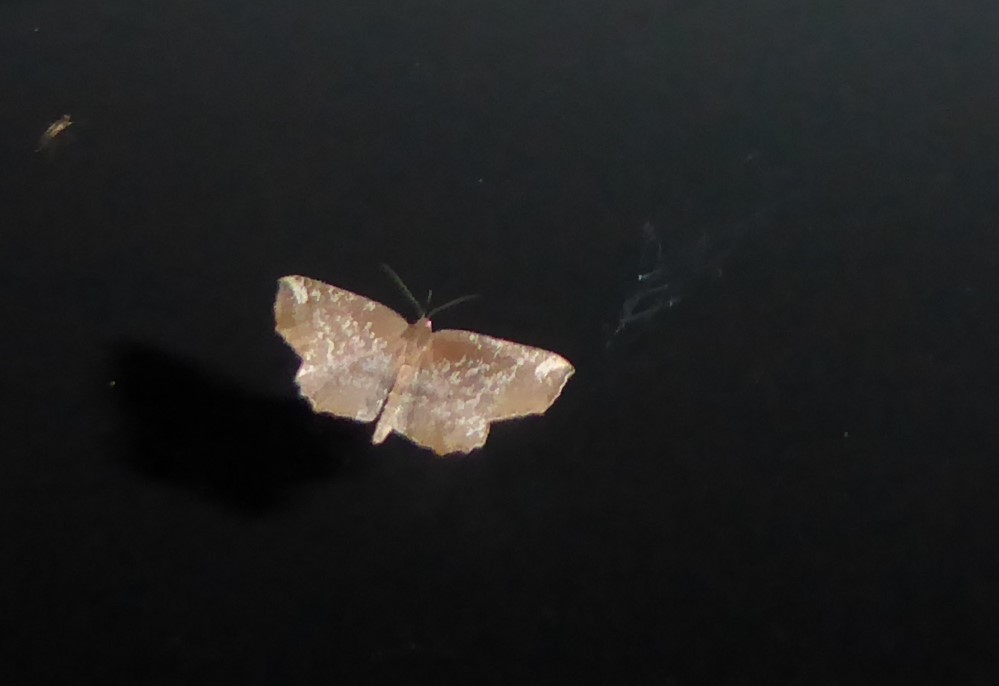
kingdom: Animalia
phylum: Arthropoda
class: Insecta
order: Lepidoptera
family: Geometridae
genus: Xyridacma
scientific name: Xyridacma ustaria
